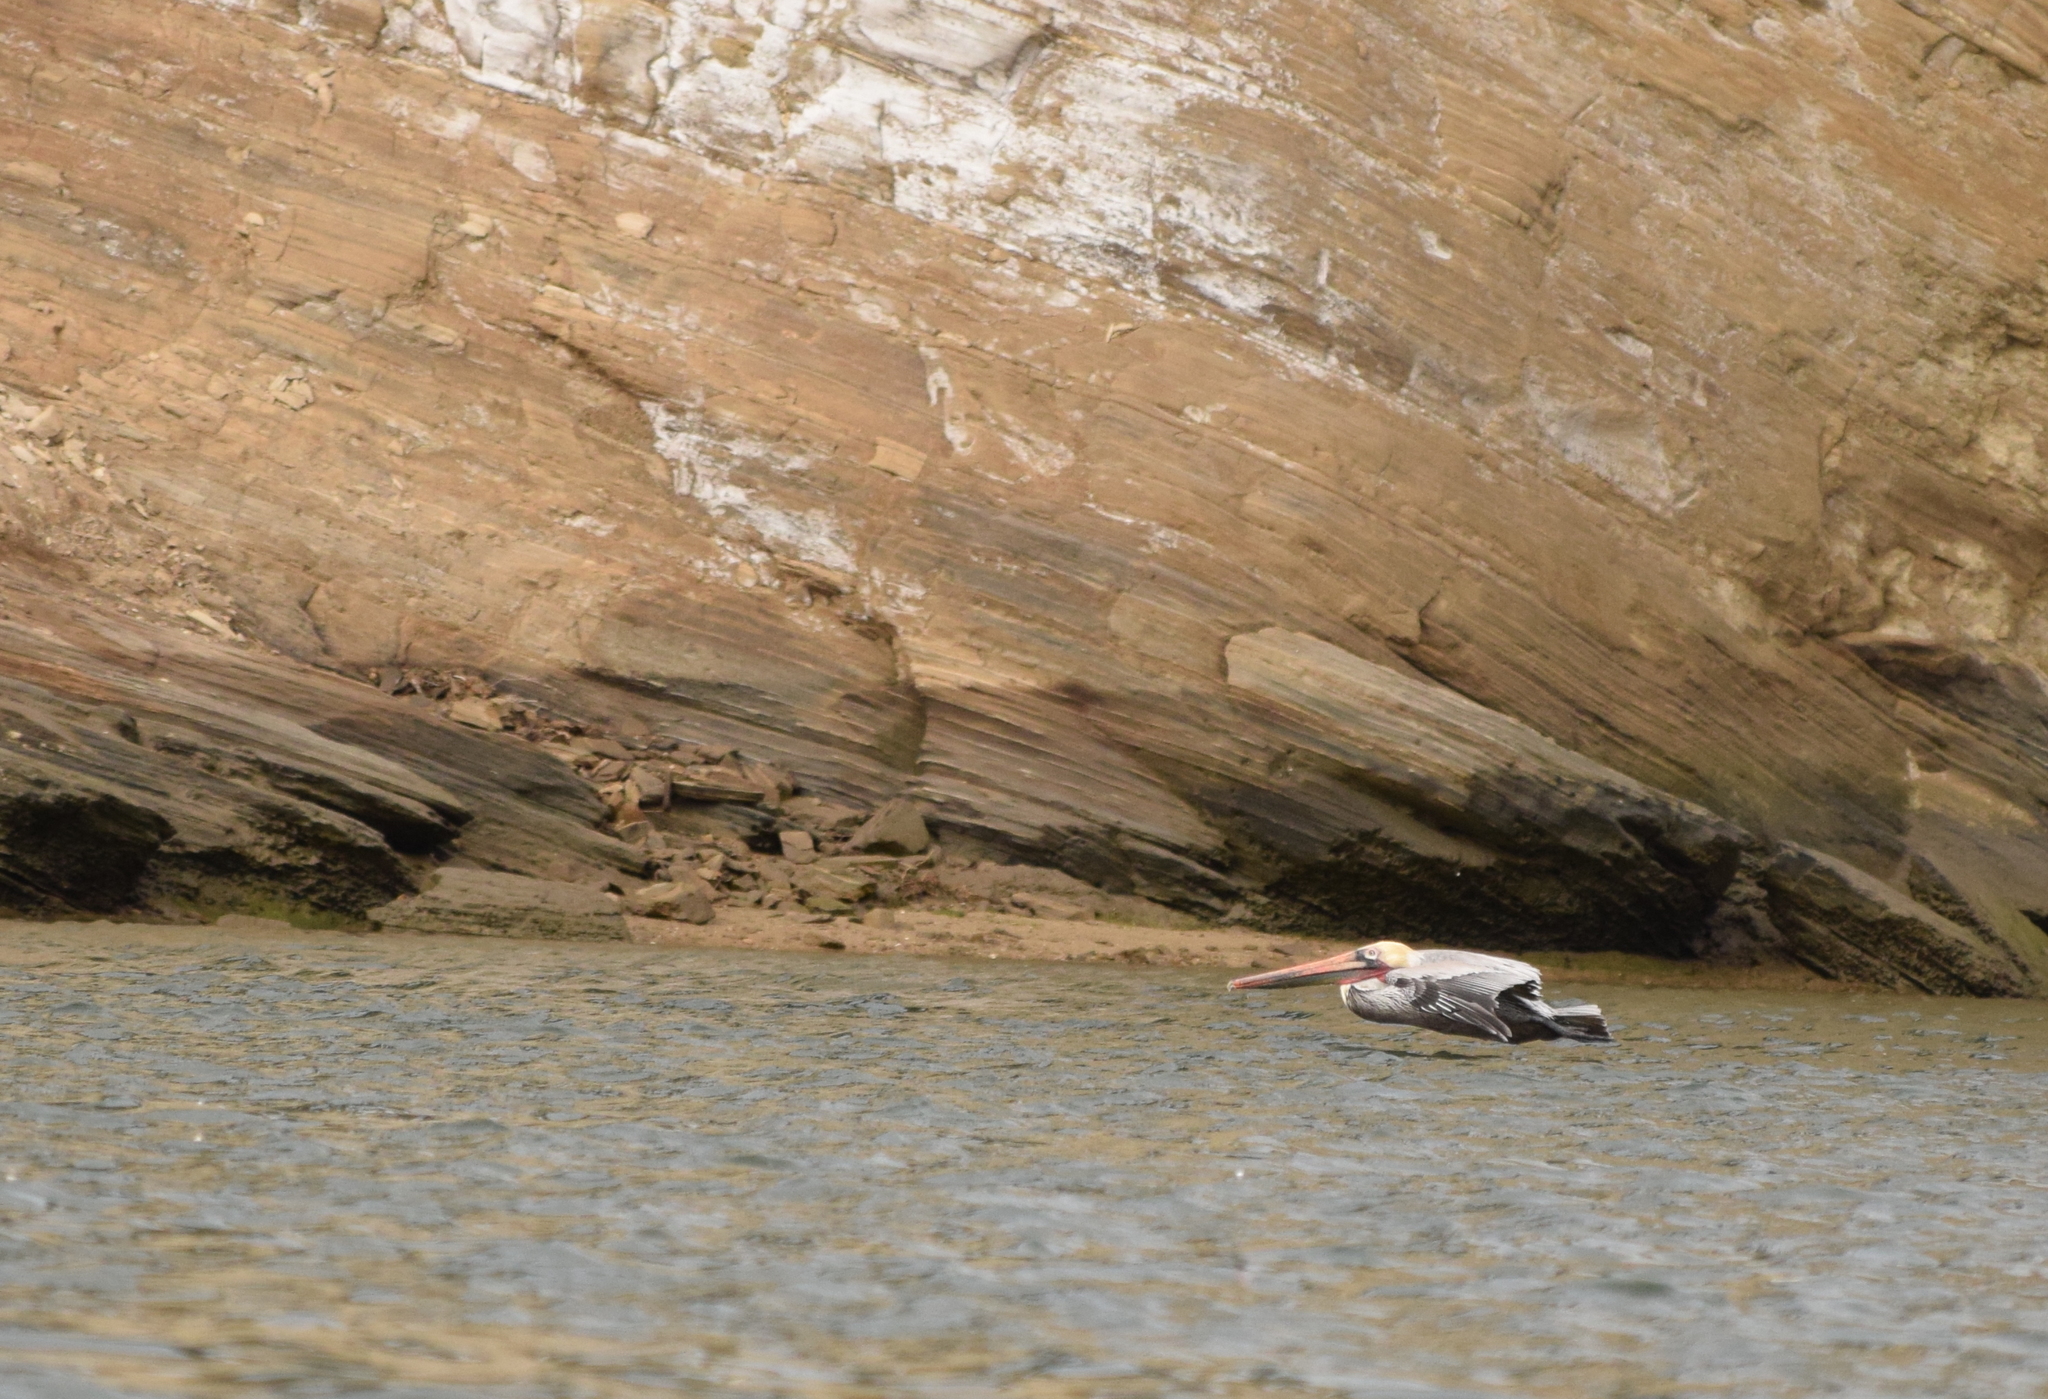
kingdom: Animalia
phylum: Chordata
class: Aves
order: Pelecaniformes
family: Pelecanidae
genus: Pelecanus
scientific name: Pelecanus occidentalis
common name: Brown pelican
